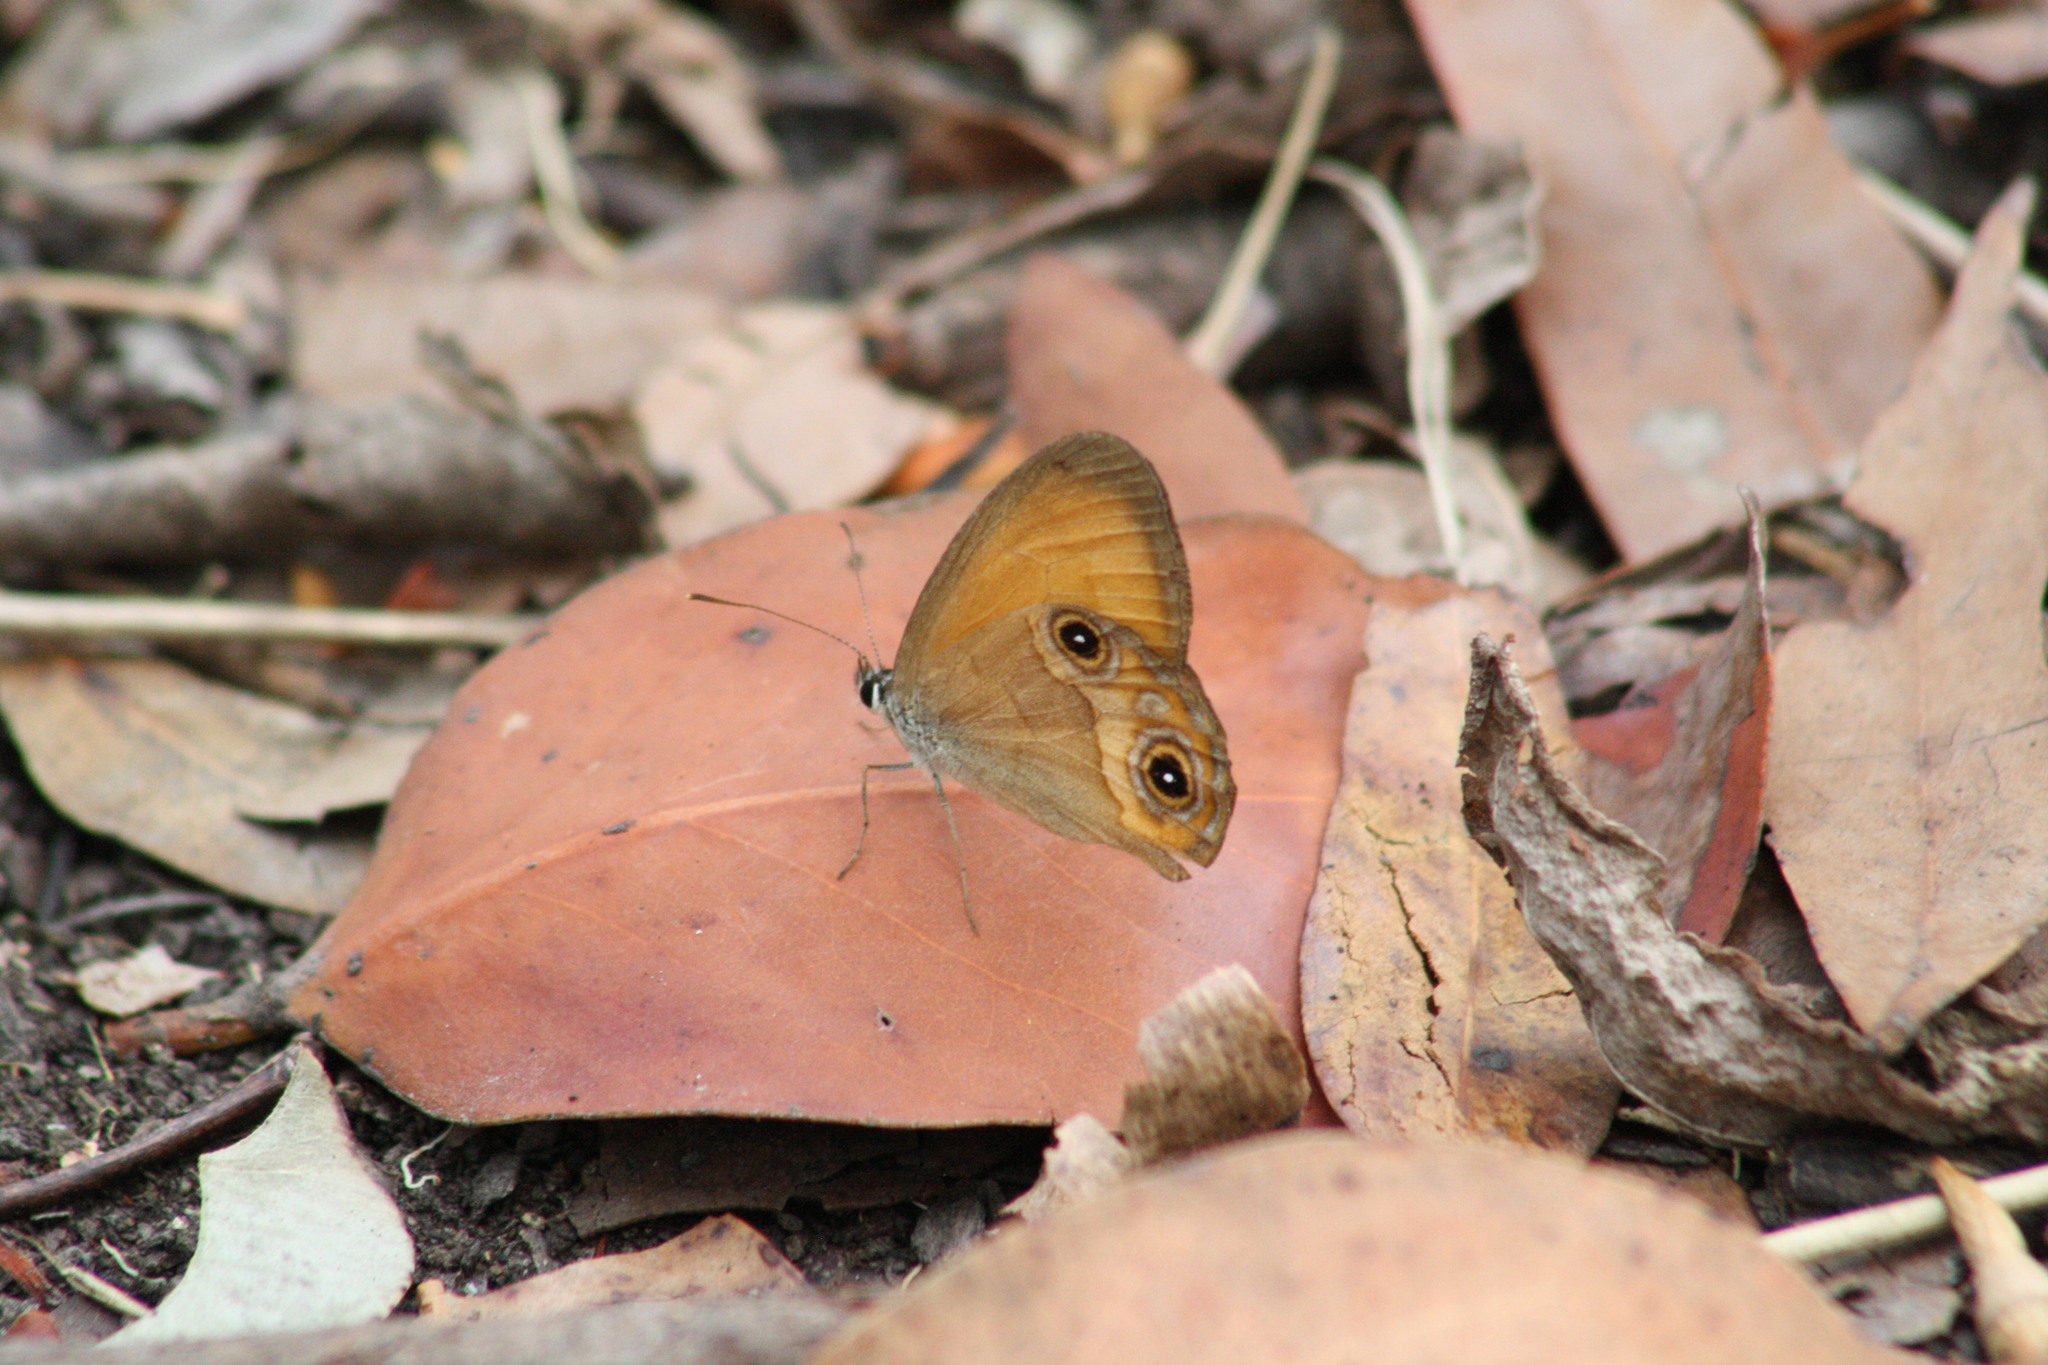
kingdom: Animalia
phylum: Arthropoda
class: Insecta
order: Lepidoptera
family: Nymphalidae
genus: Hypocysta
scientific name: Hypocysta adiante
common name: Orange ringlet
